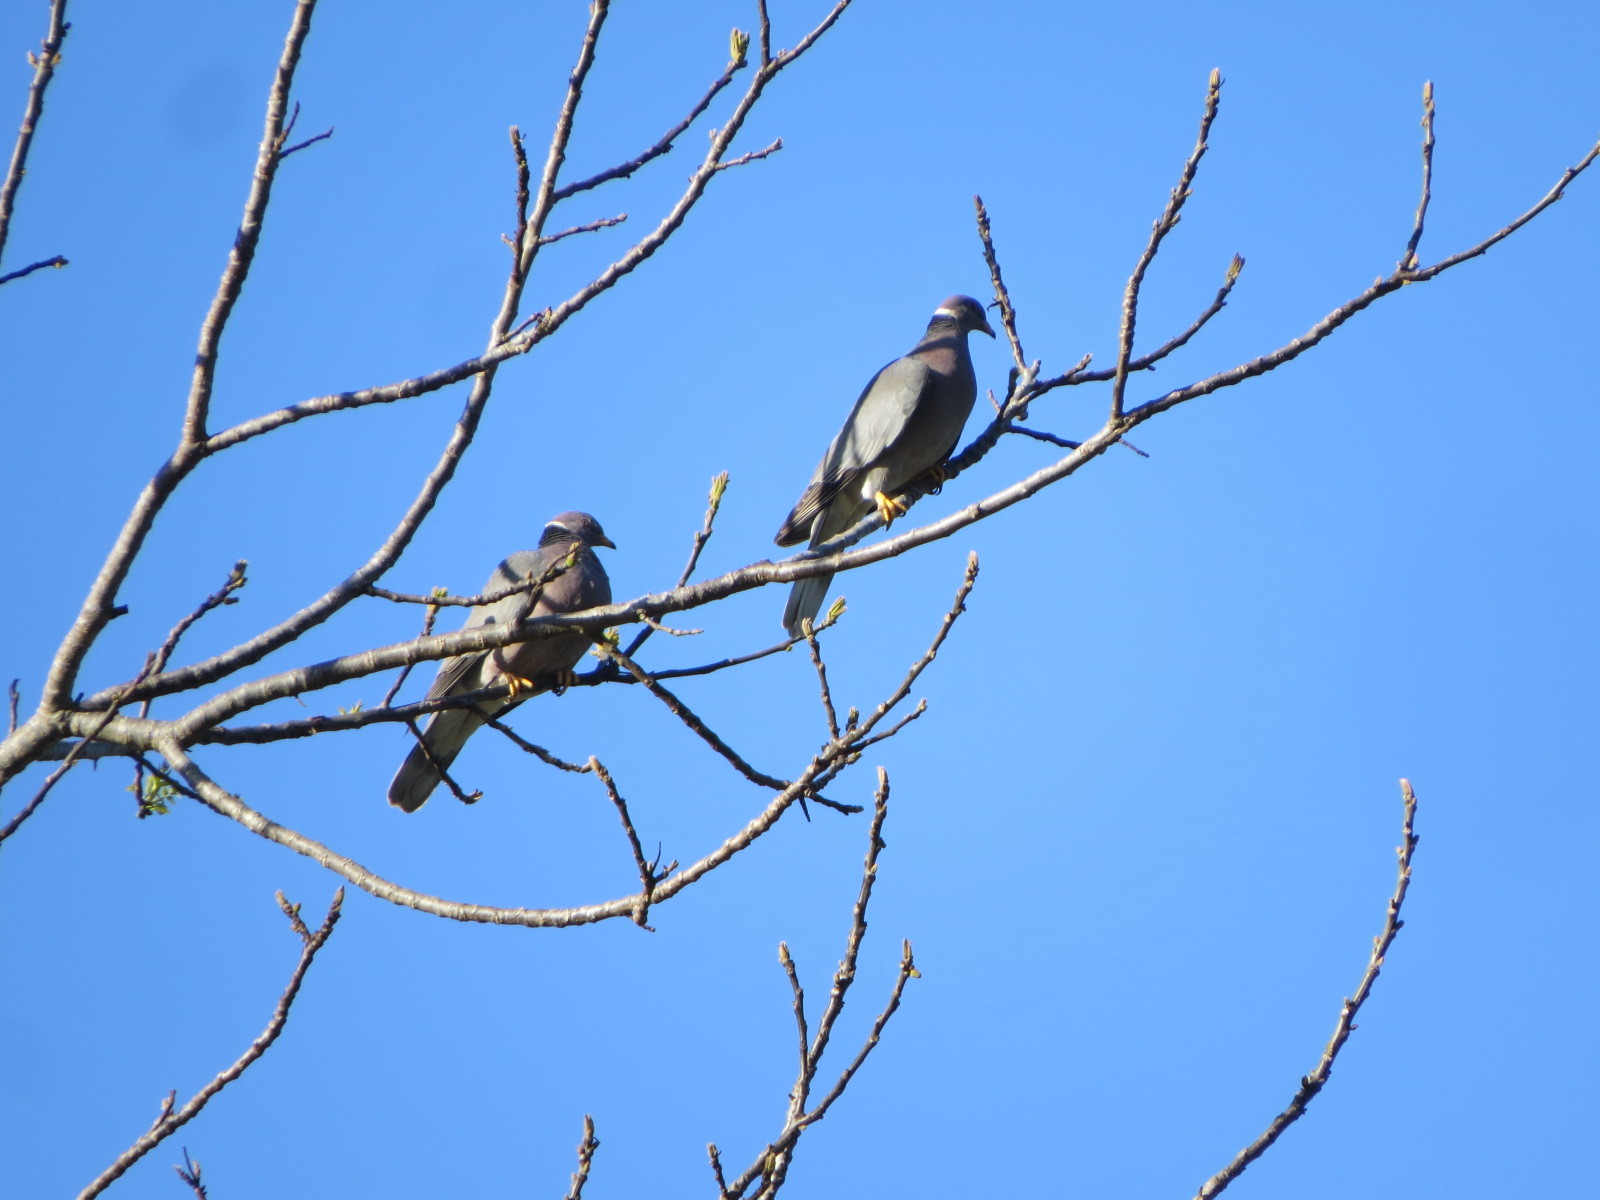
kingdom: Animalia
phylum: Chordata
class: Aves
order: Columbiformes
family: Columbidae
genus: Patagioenas
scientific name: Patagioenas fasciata
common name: Band-tailed pigeon
